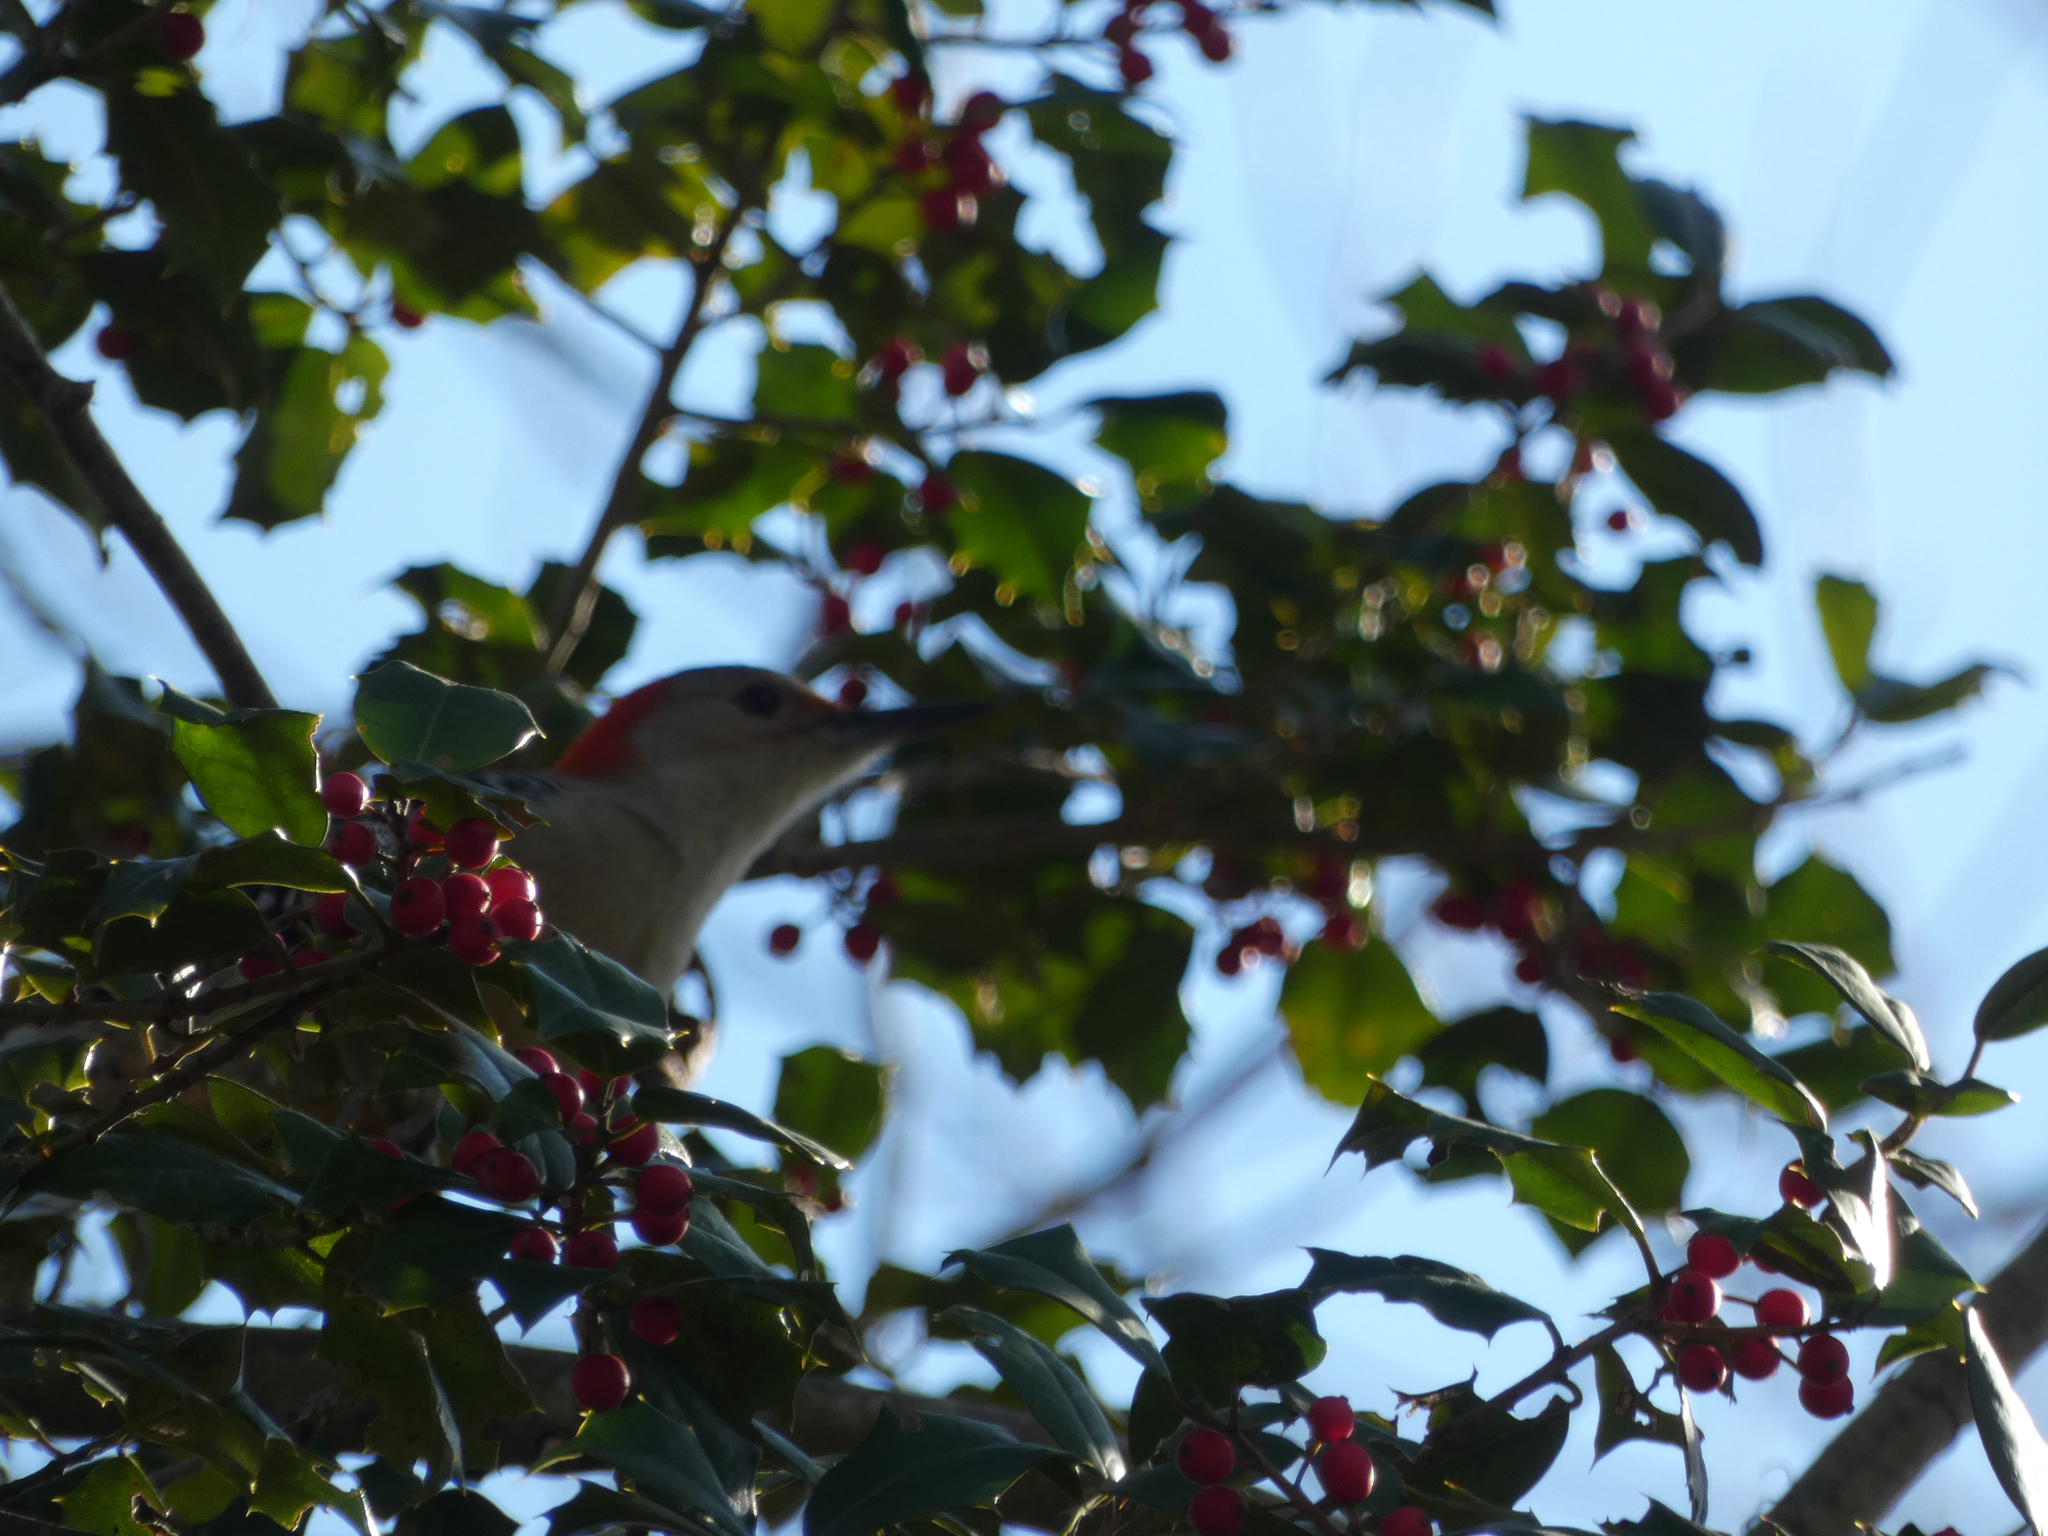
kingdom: Animalia
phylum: Chordata
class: Aves
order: Piciformes
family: Picidae
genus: Melanerpes
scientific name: Melanerpes carolinus
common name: Red-bellied woodpecker
